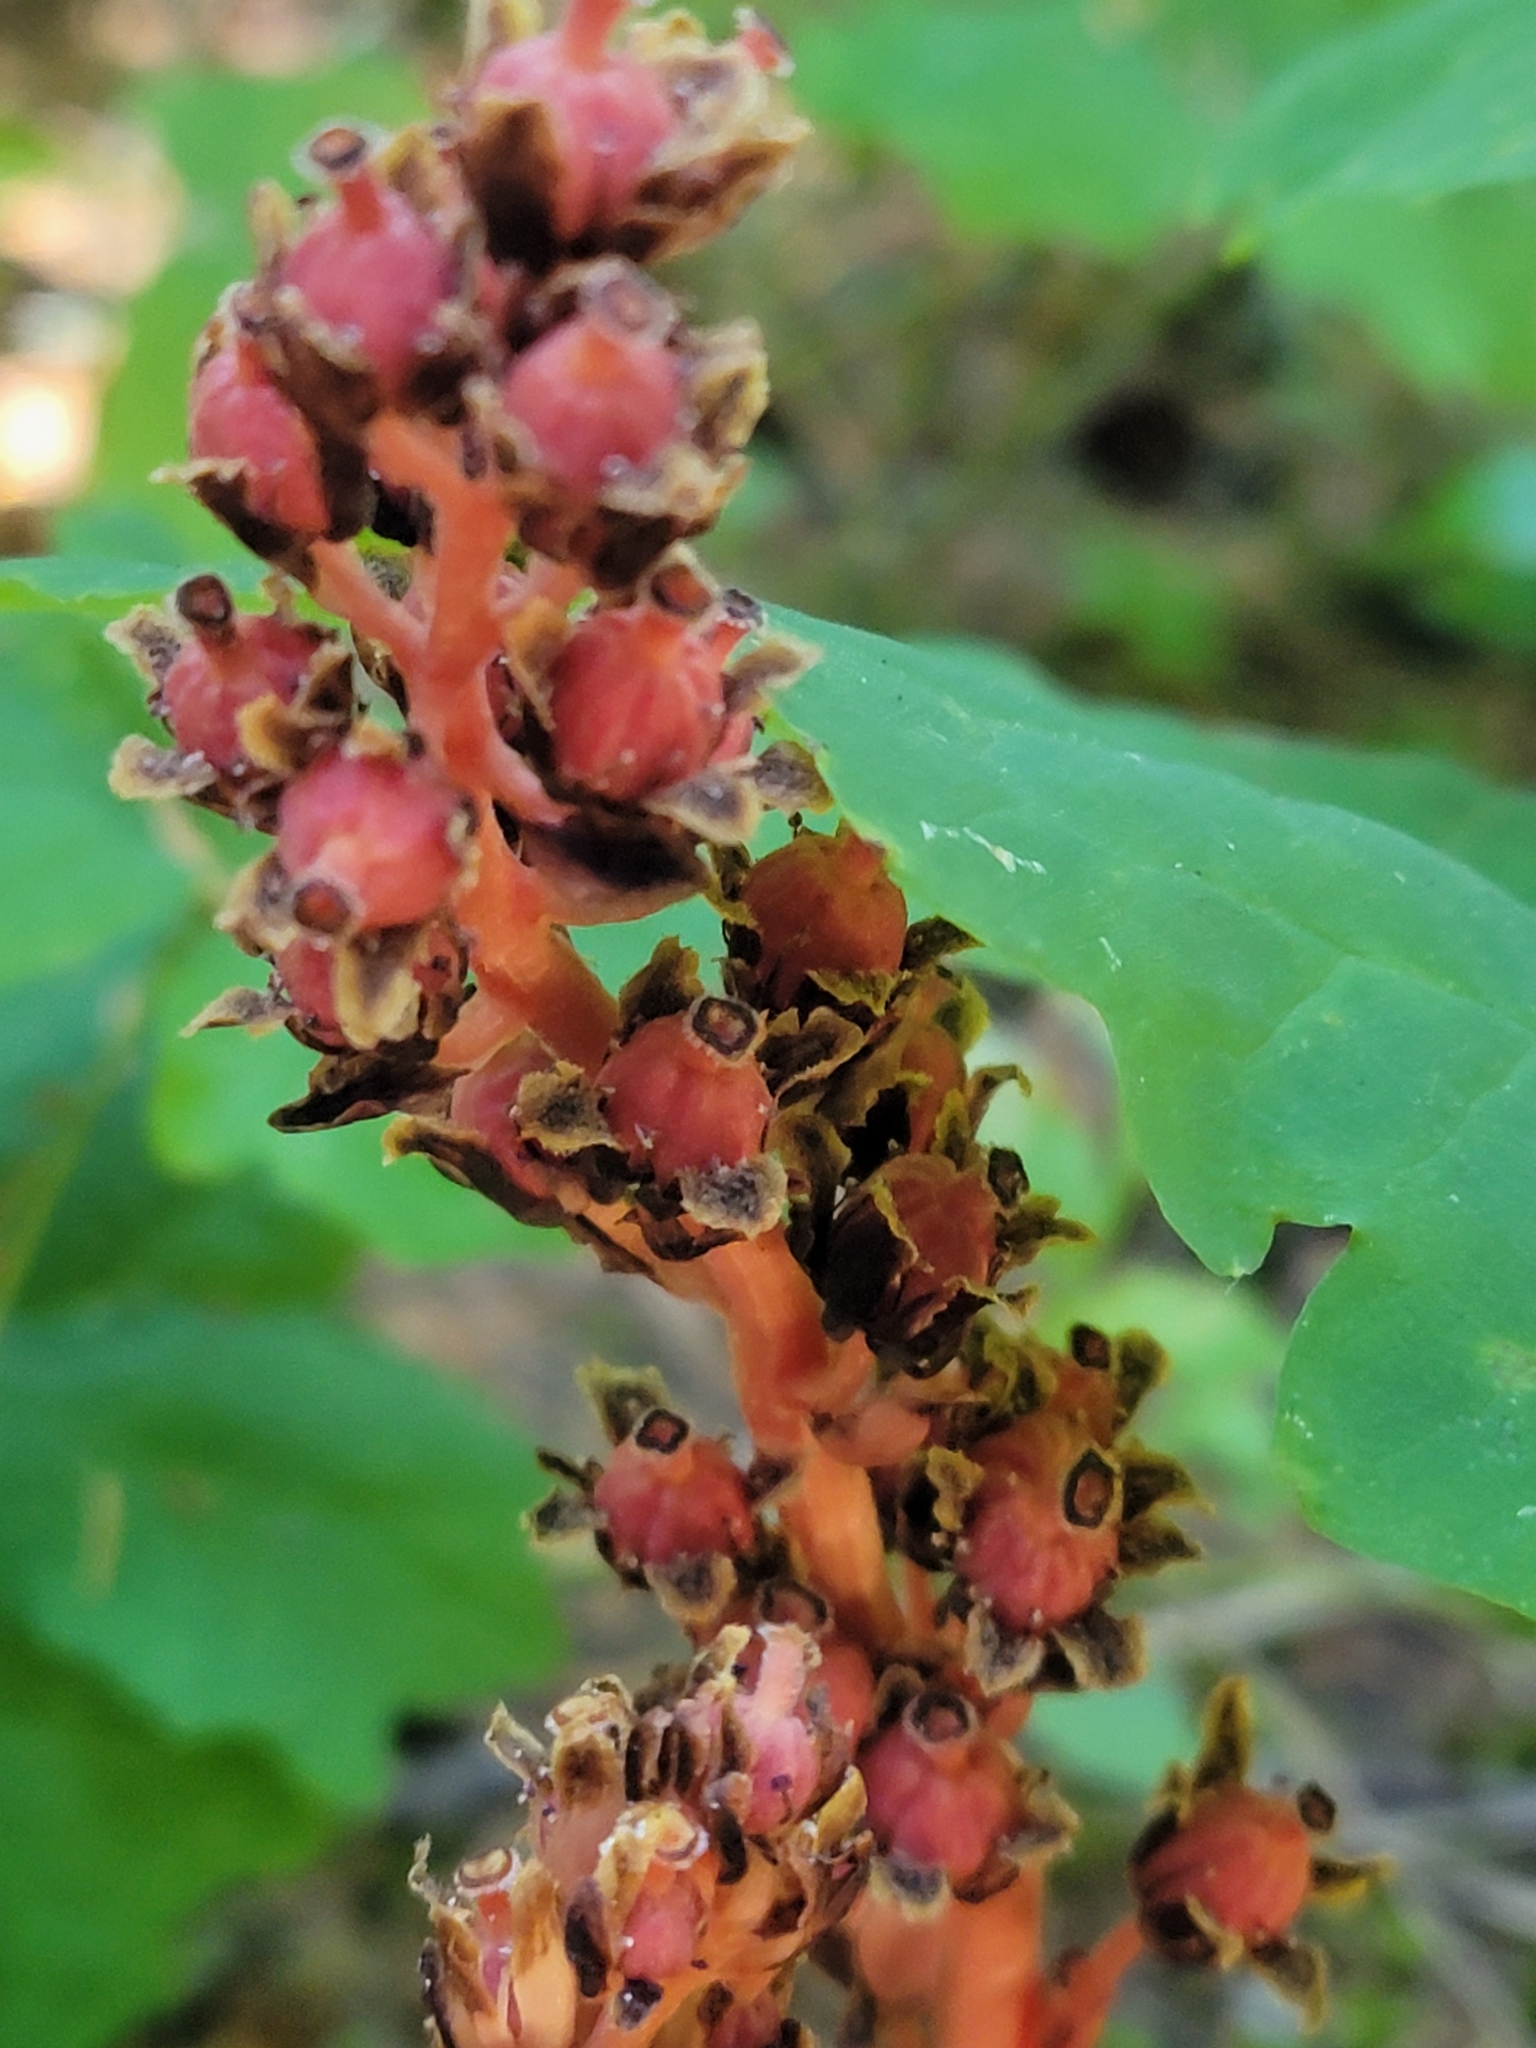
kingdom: Plantae
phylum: Tracheophyta
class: Magnoliopsida
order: Ericales
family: Ericaceae
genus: Hypopitys
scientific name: Hypopitys monotropa
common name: Yellow bird's-nest
